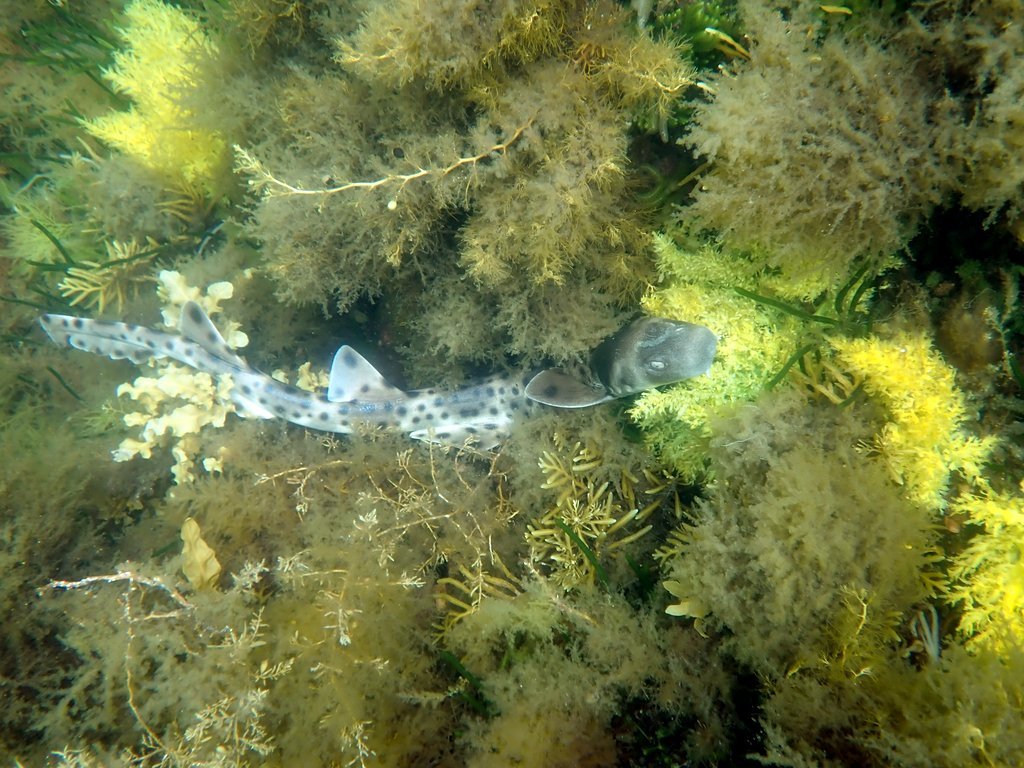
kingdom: Animalia
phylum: Chordata
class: Elasmobranchii
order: Orectolobiformes
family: Parascylliidae
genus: Parascyllium
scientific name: Parascyllium ferrugineum
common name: Rusty carpetshark
